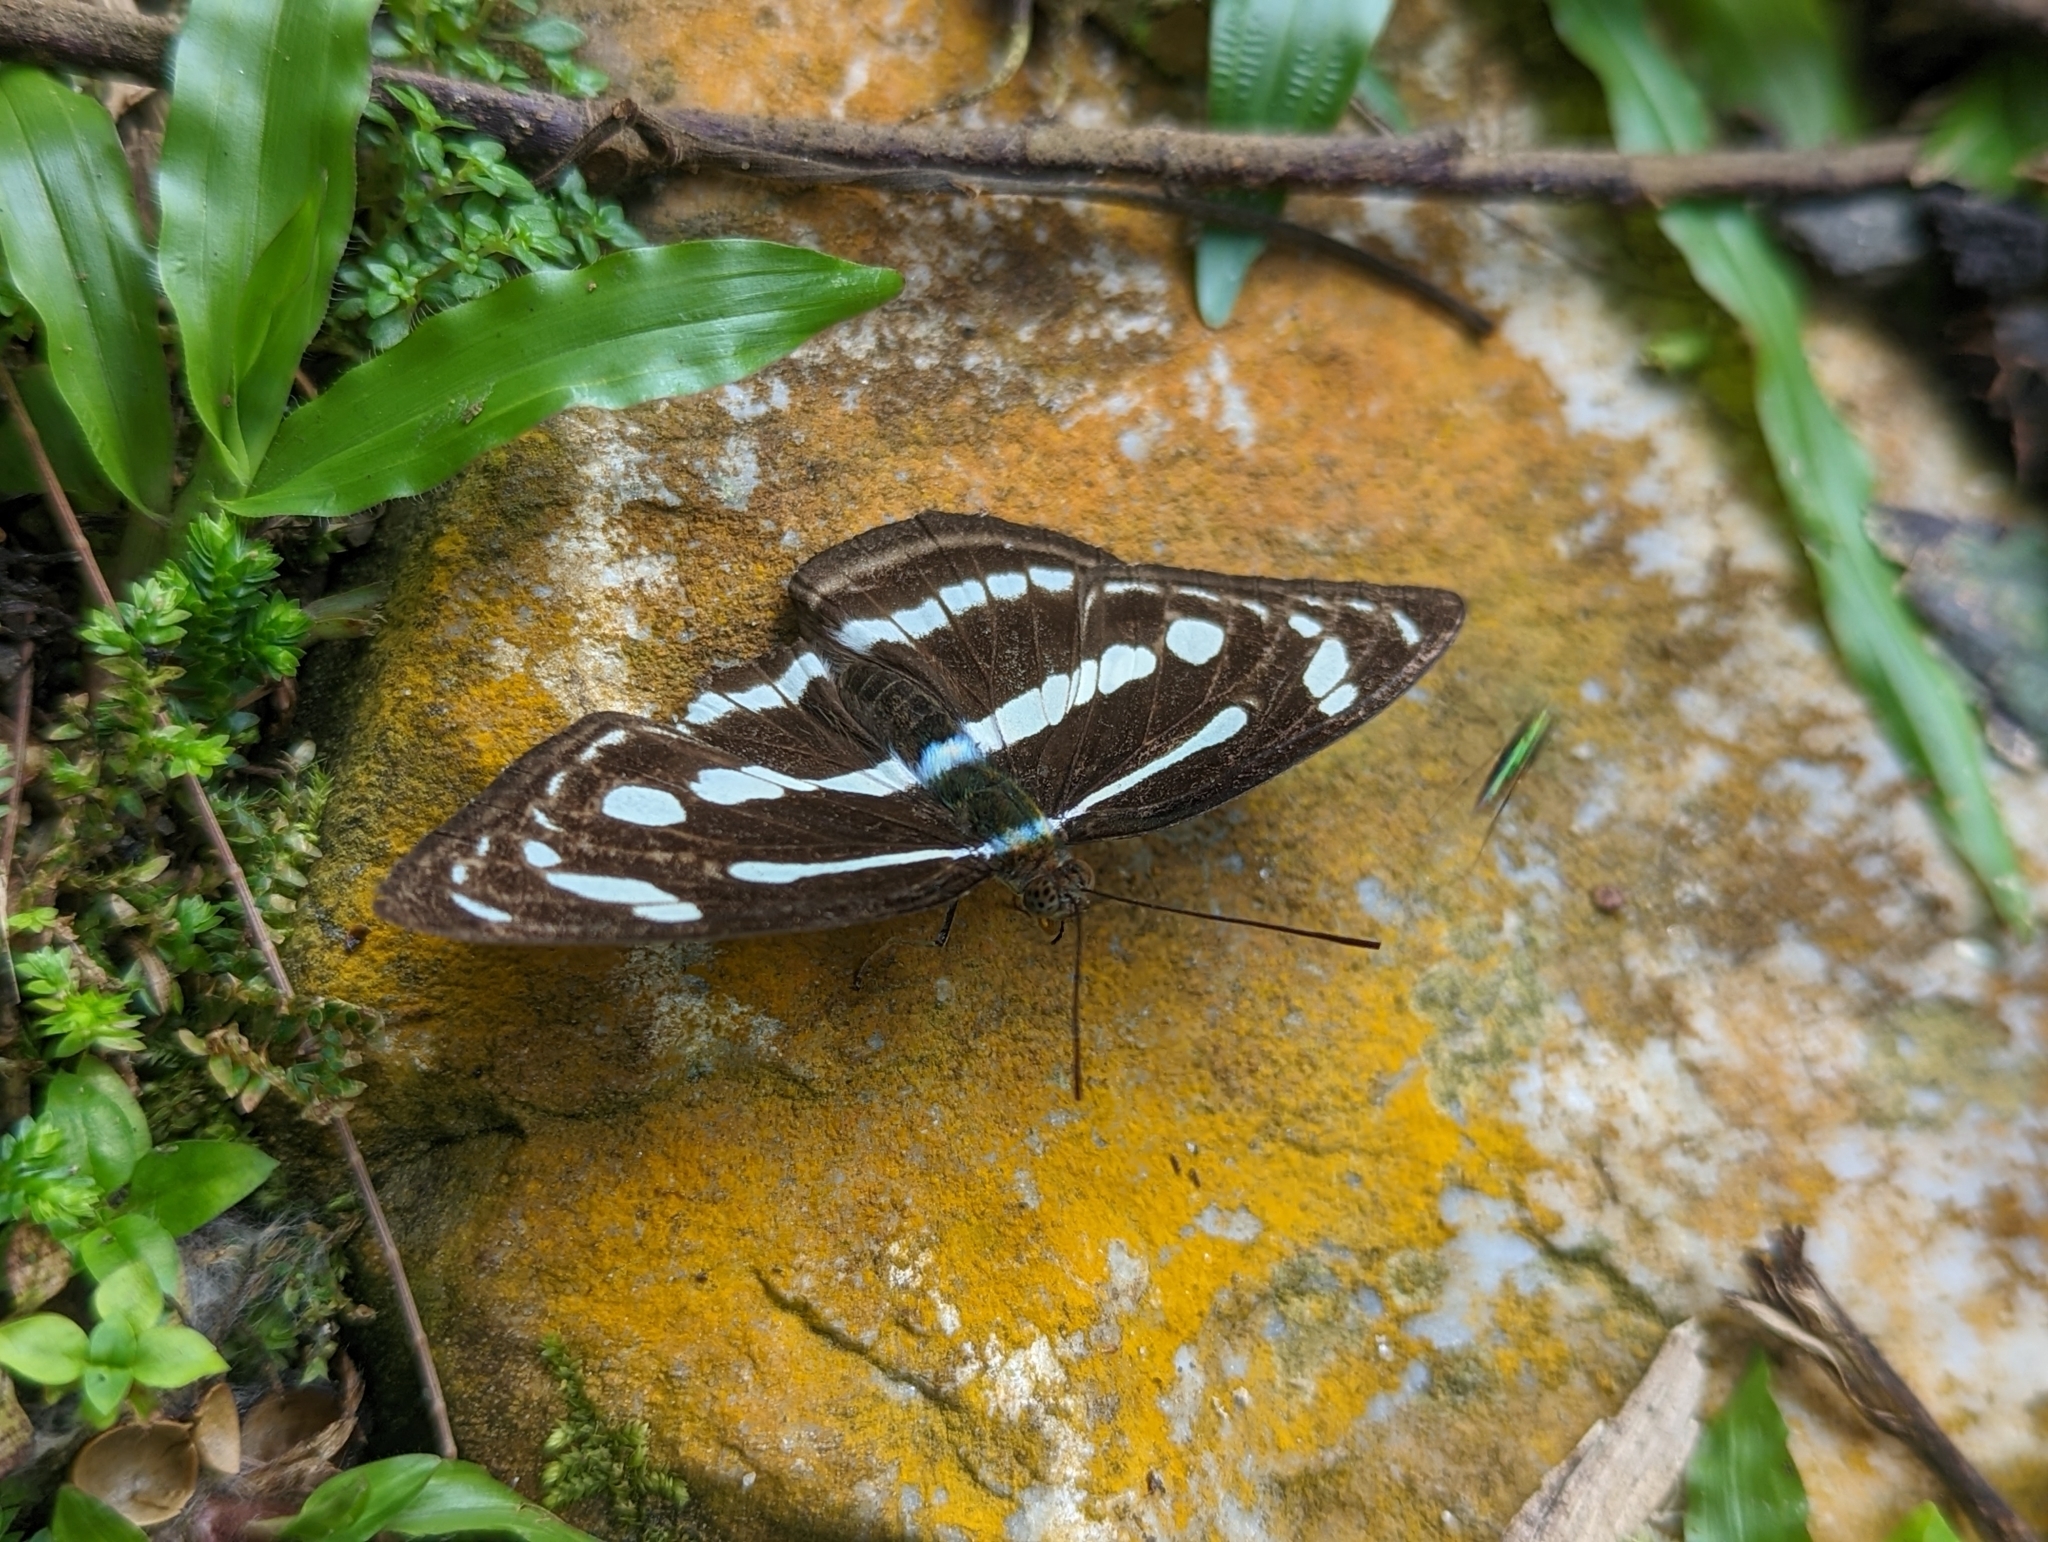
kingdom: Animalia
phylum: Arthropoda
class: Insecta
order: Lepidoptera
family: Nymphalidae
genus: Parathyma
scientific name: Parathyma pravara
